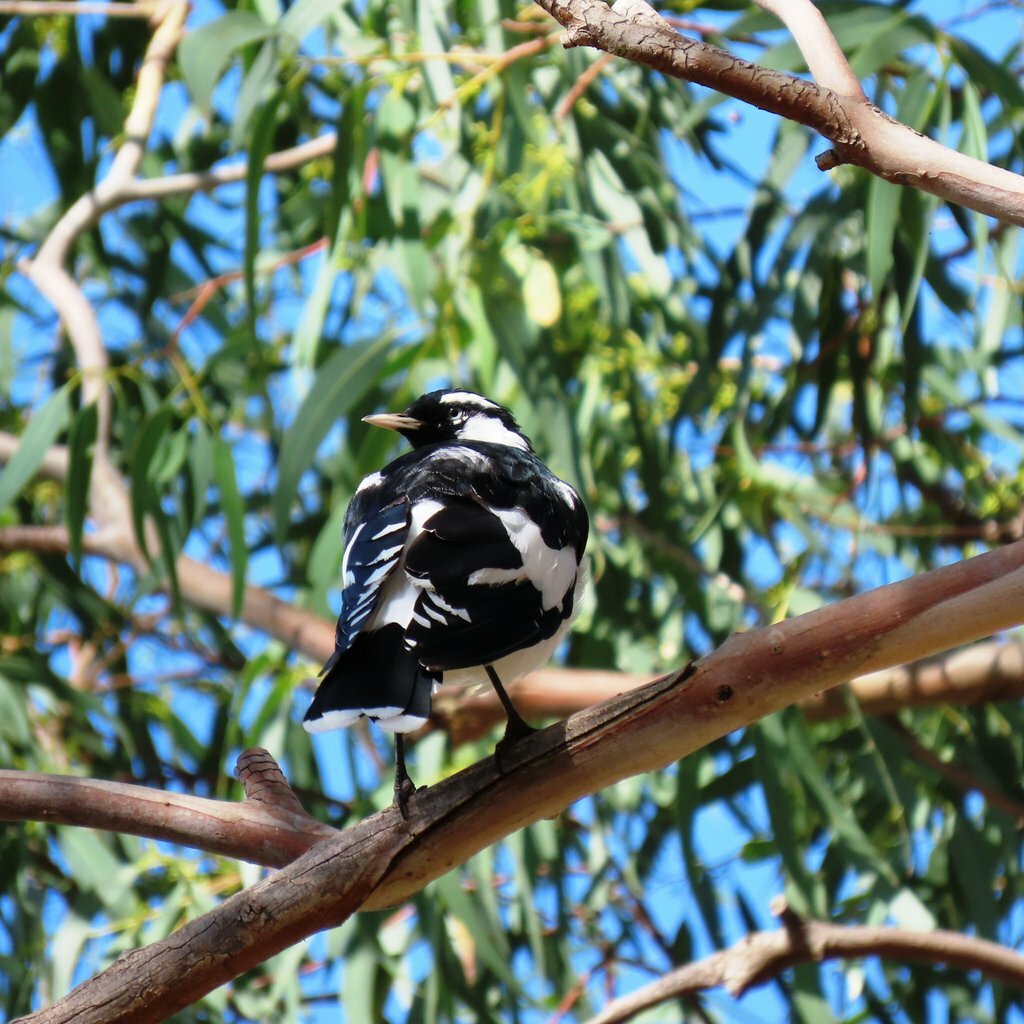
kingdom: Animalia
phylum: Chordata
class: Aves
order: Passeriformes
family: Monarchidae
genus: Grallina
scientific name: Grallina cyanoleuca
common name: Magpie-lark
